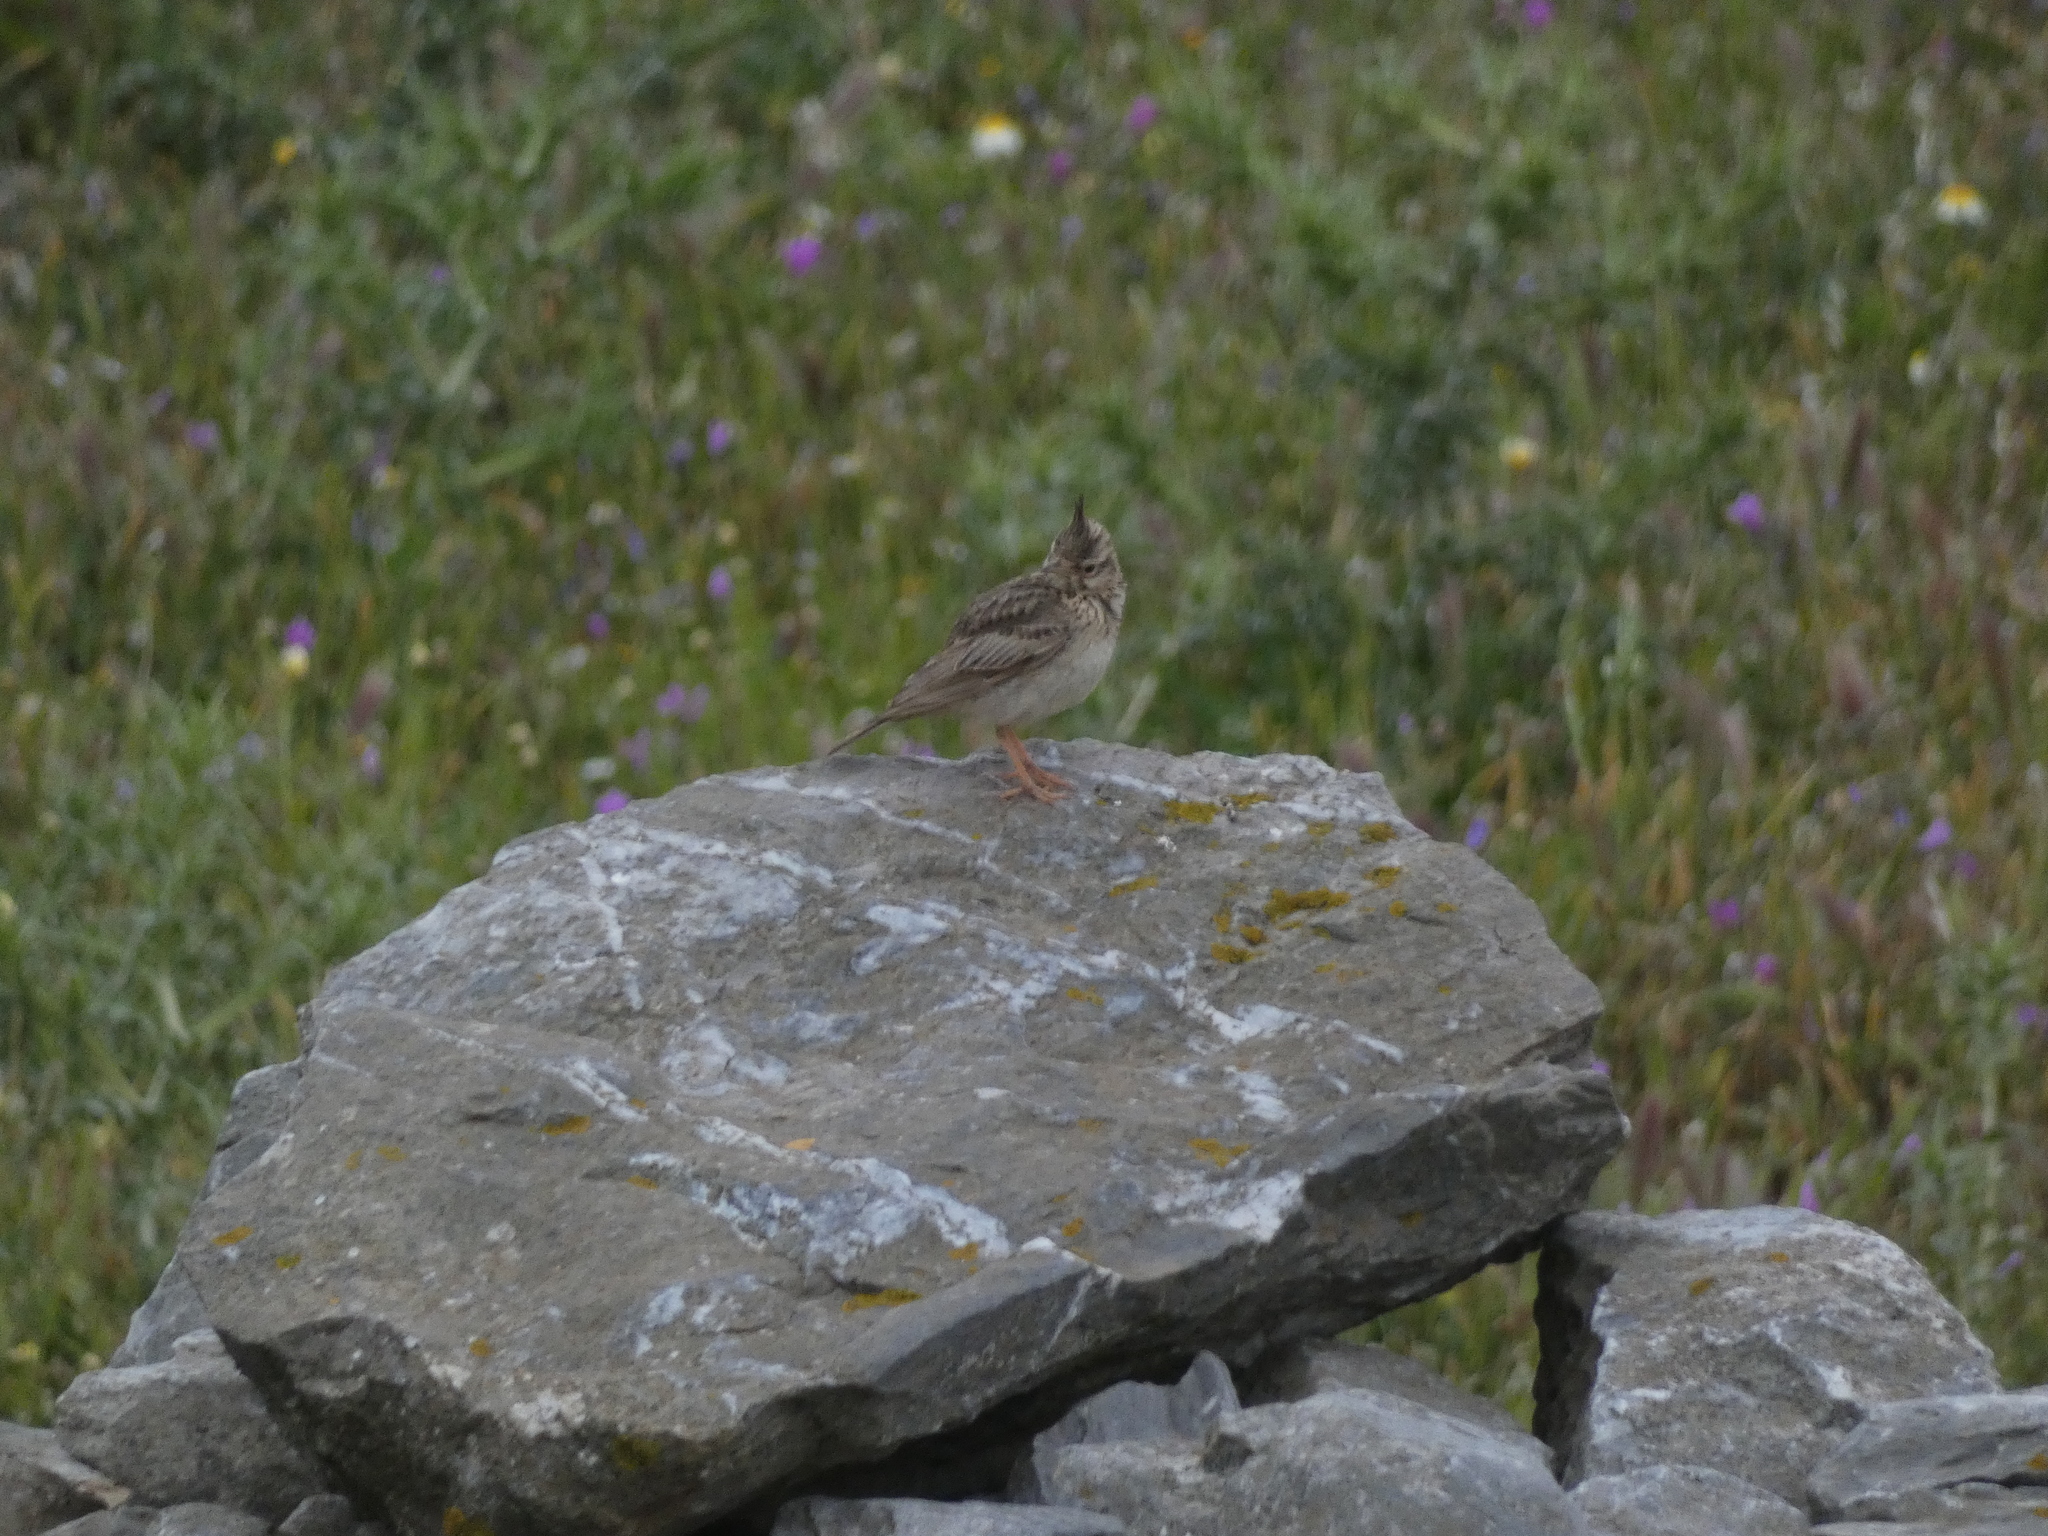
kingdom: Animalia
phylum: Chordata
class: Aves
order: Passeriformes
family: Alaudidae
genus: Galerida
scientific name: Galerida cristata
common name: Crested lark
